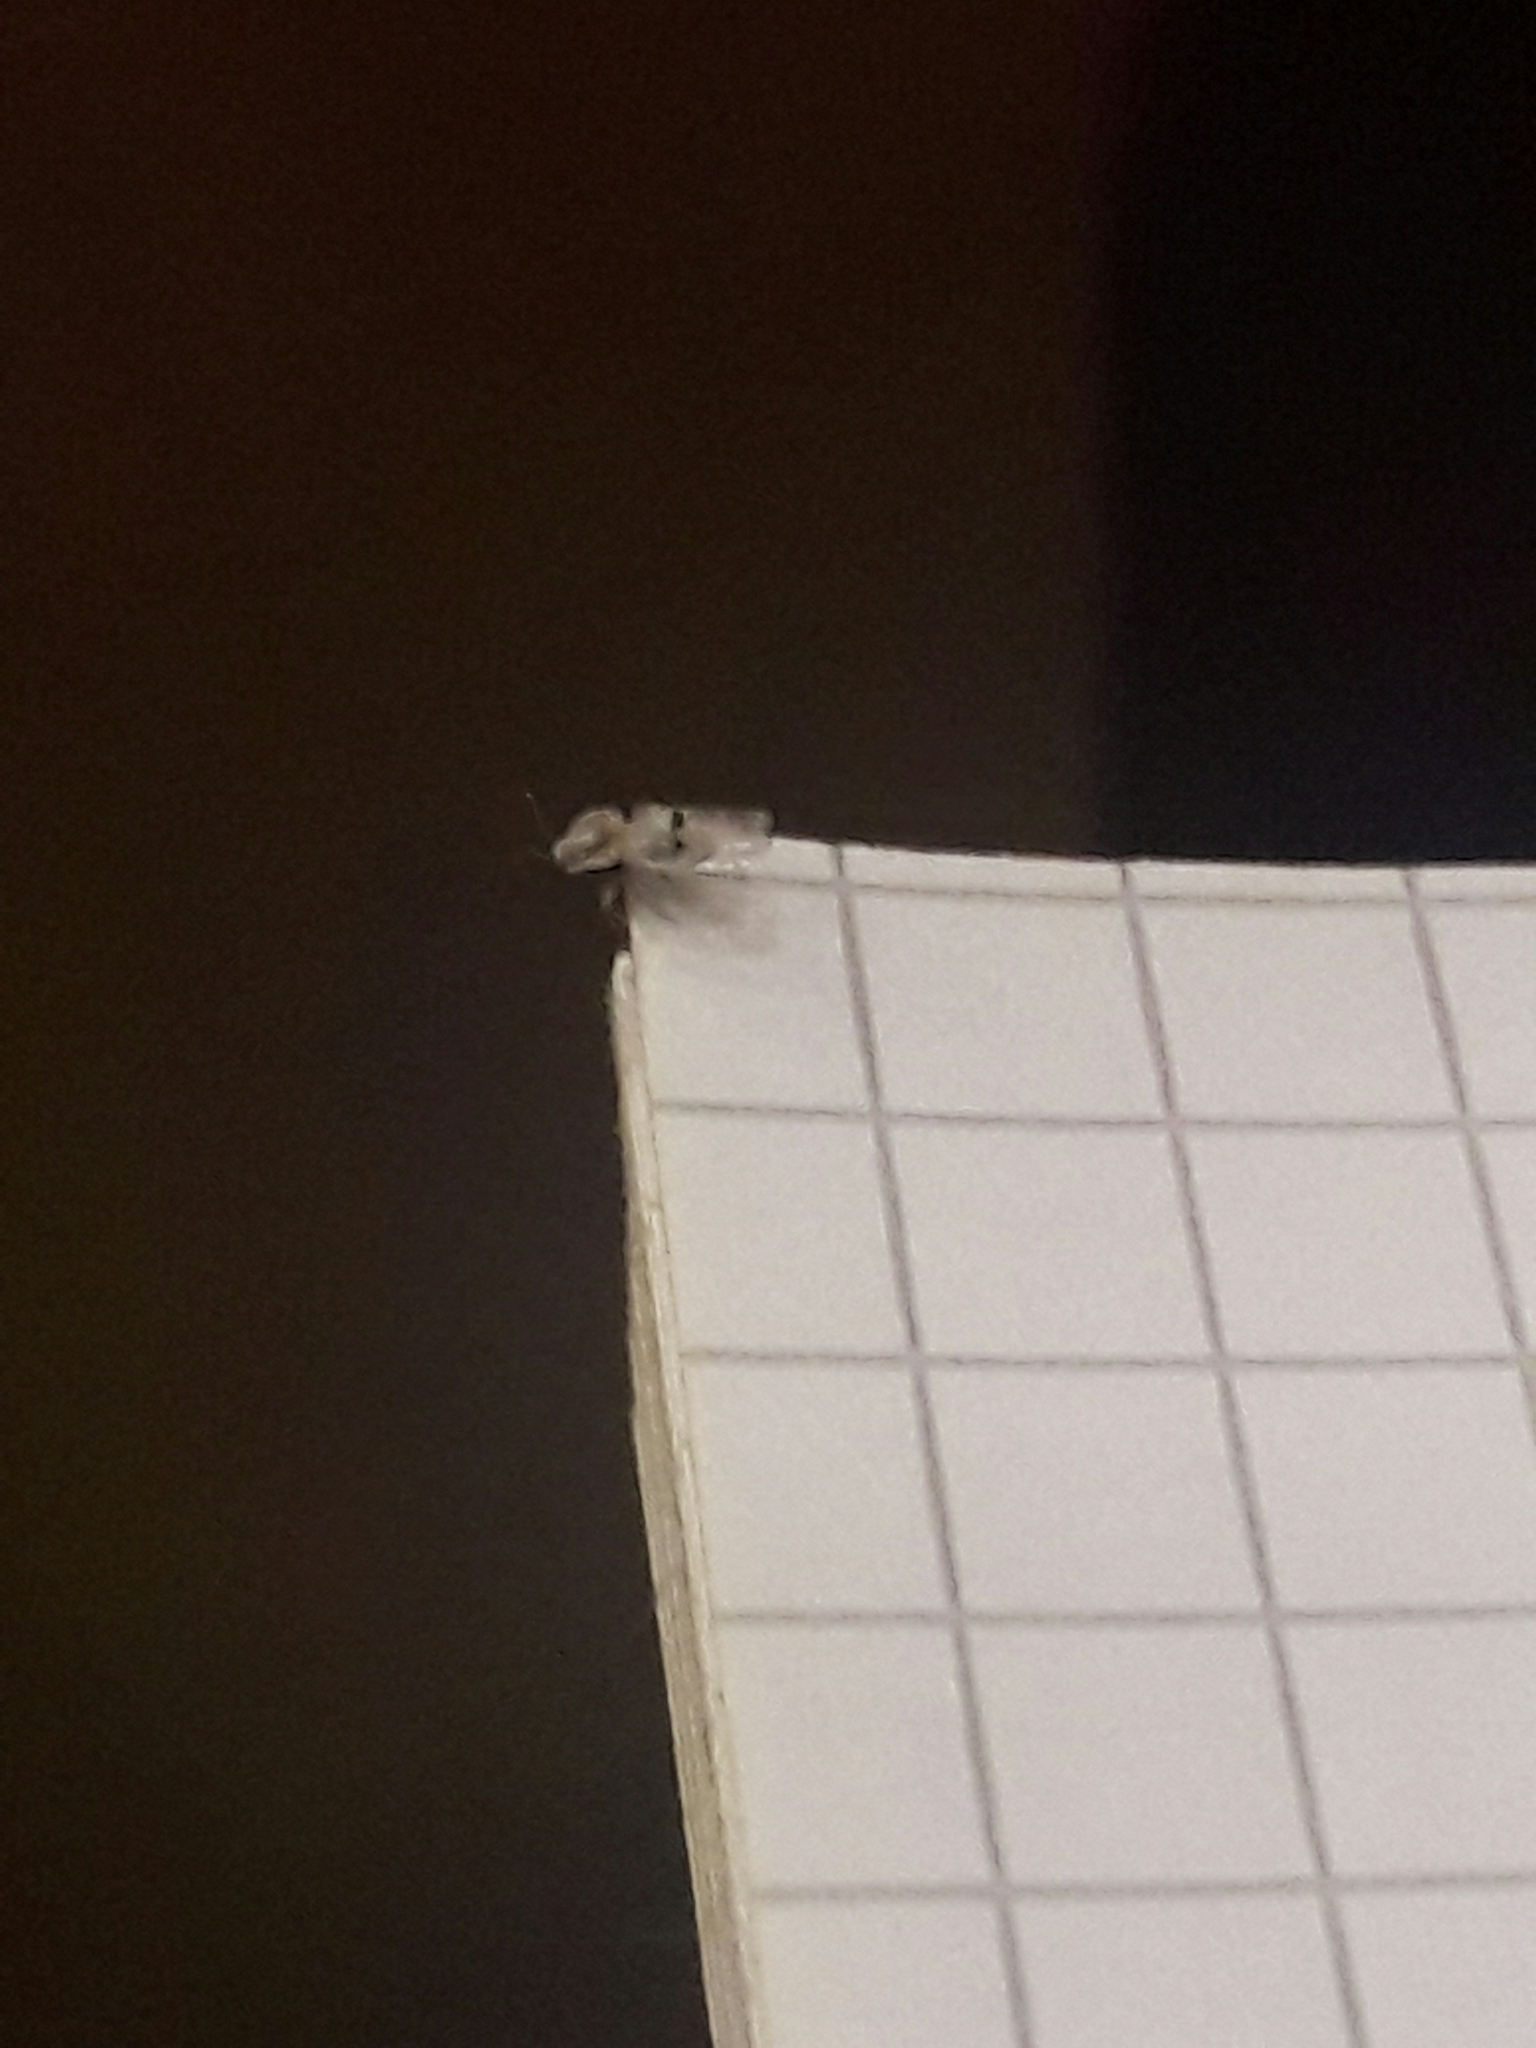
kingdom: Animalia
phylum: Arthropoda
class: Insecta
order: Hemiptera
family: Tingidae
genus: Corythucha
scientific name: Corythucha ciliata
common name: Sycamore lace bug
